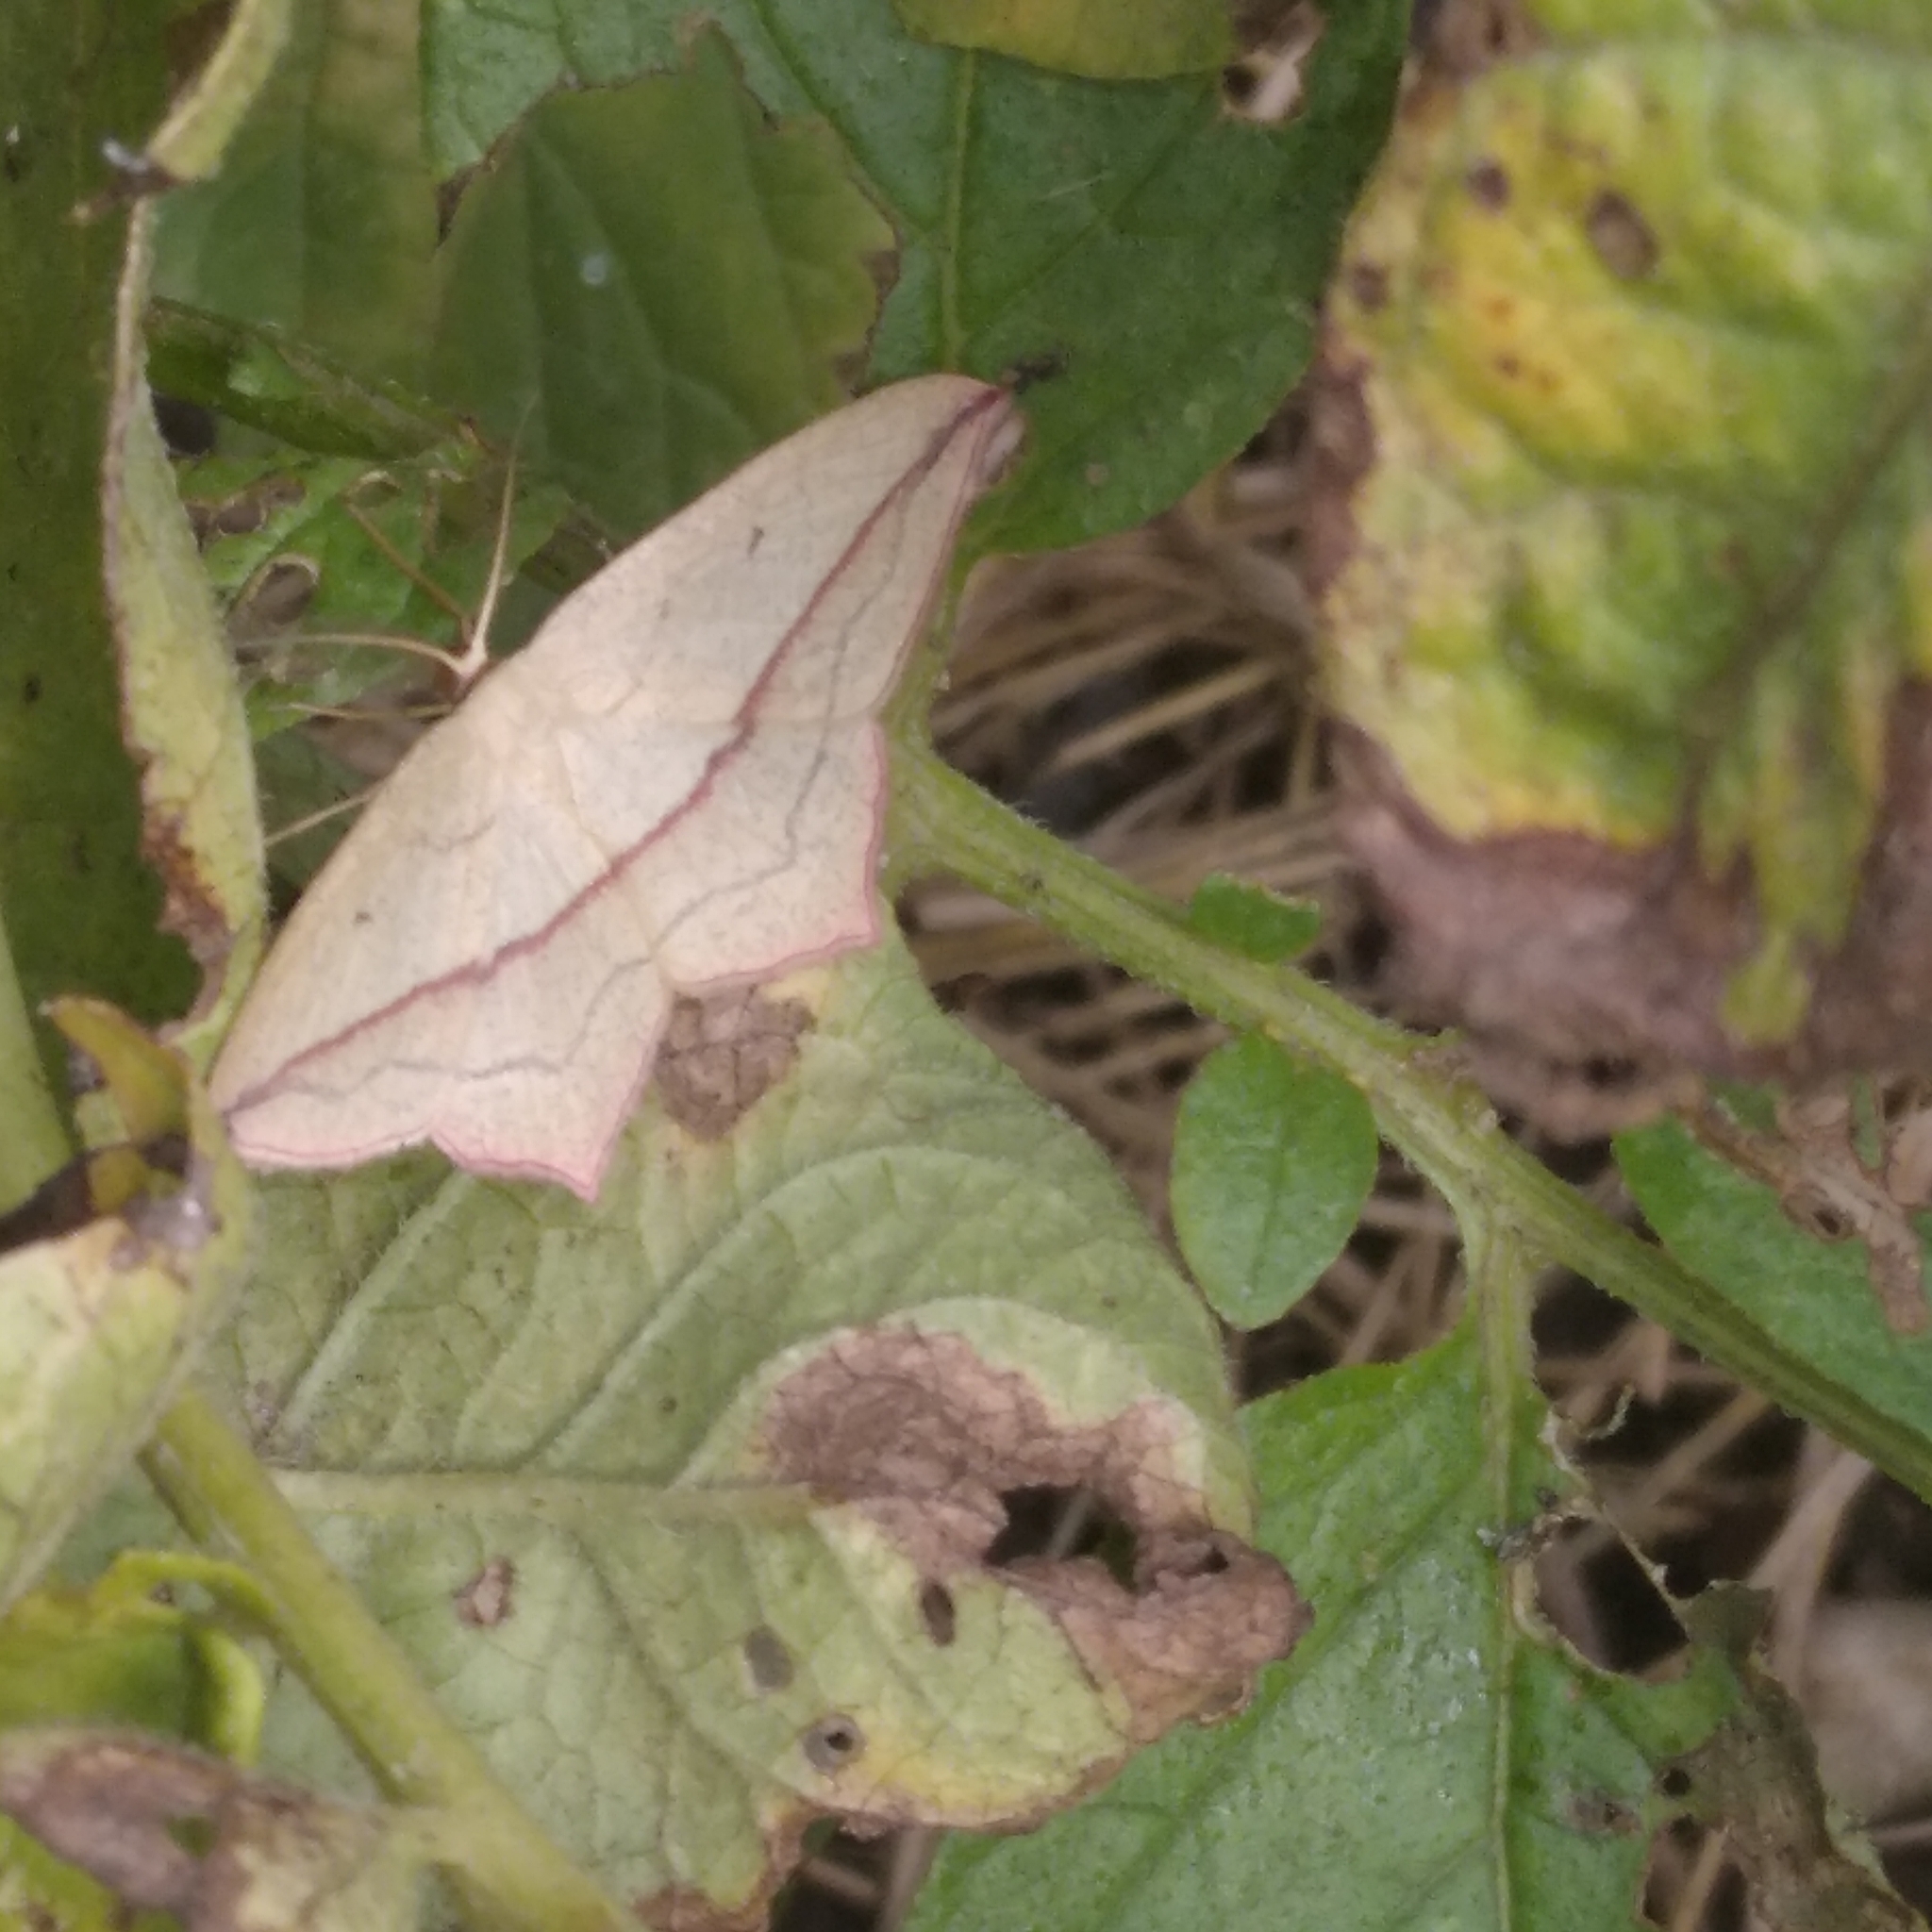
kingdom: Animalia
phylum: Arthropoda
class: Insecta
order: Lepidoptera
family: Geometridae
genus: Timandra
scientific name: Timandra comae
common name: Blood-vein
